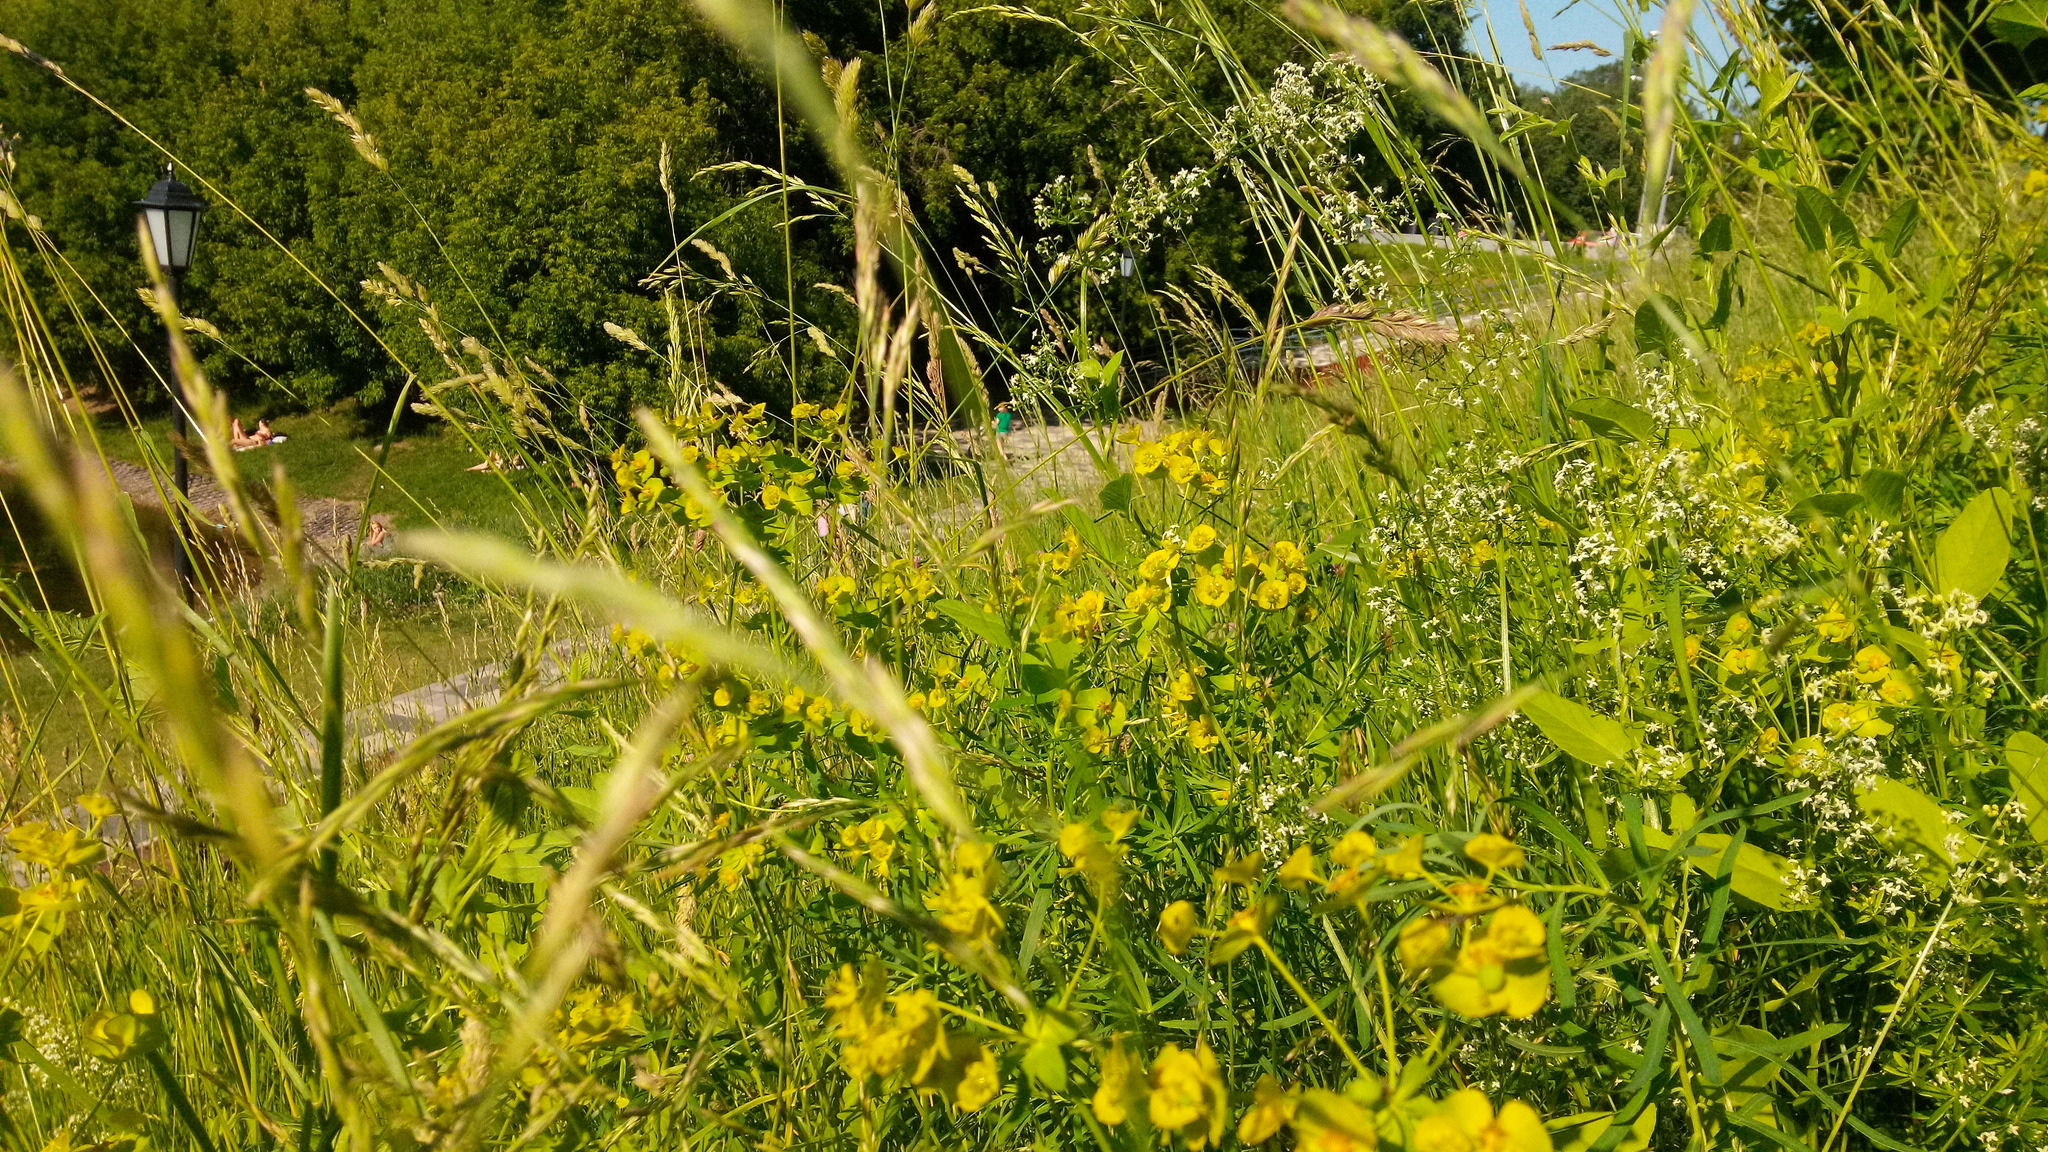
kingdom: Plantae
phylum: Tracheophyta
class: Magnoliopsida
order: Malpighiales
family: Euphorbiaceae
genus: Euphorbia
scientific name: Euphorbia virgata
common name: Leafy spurge
